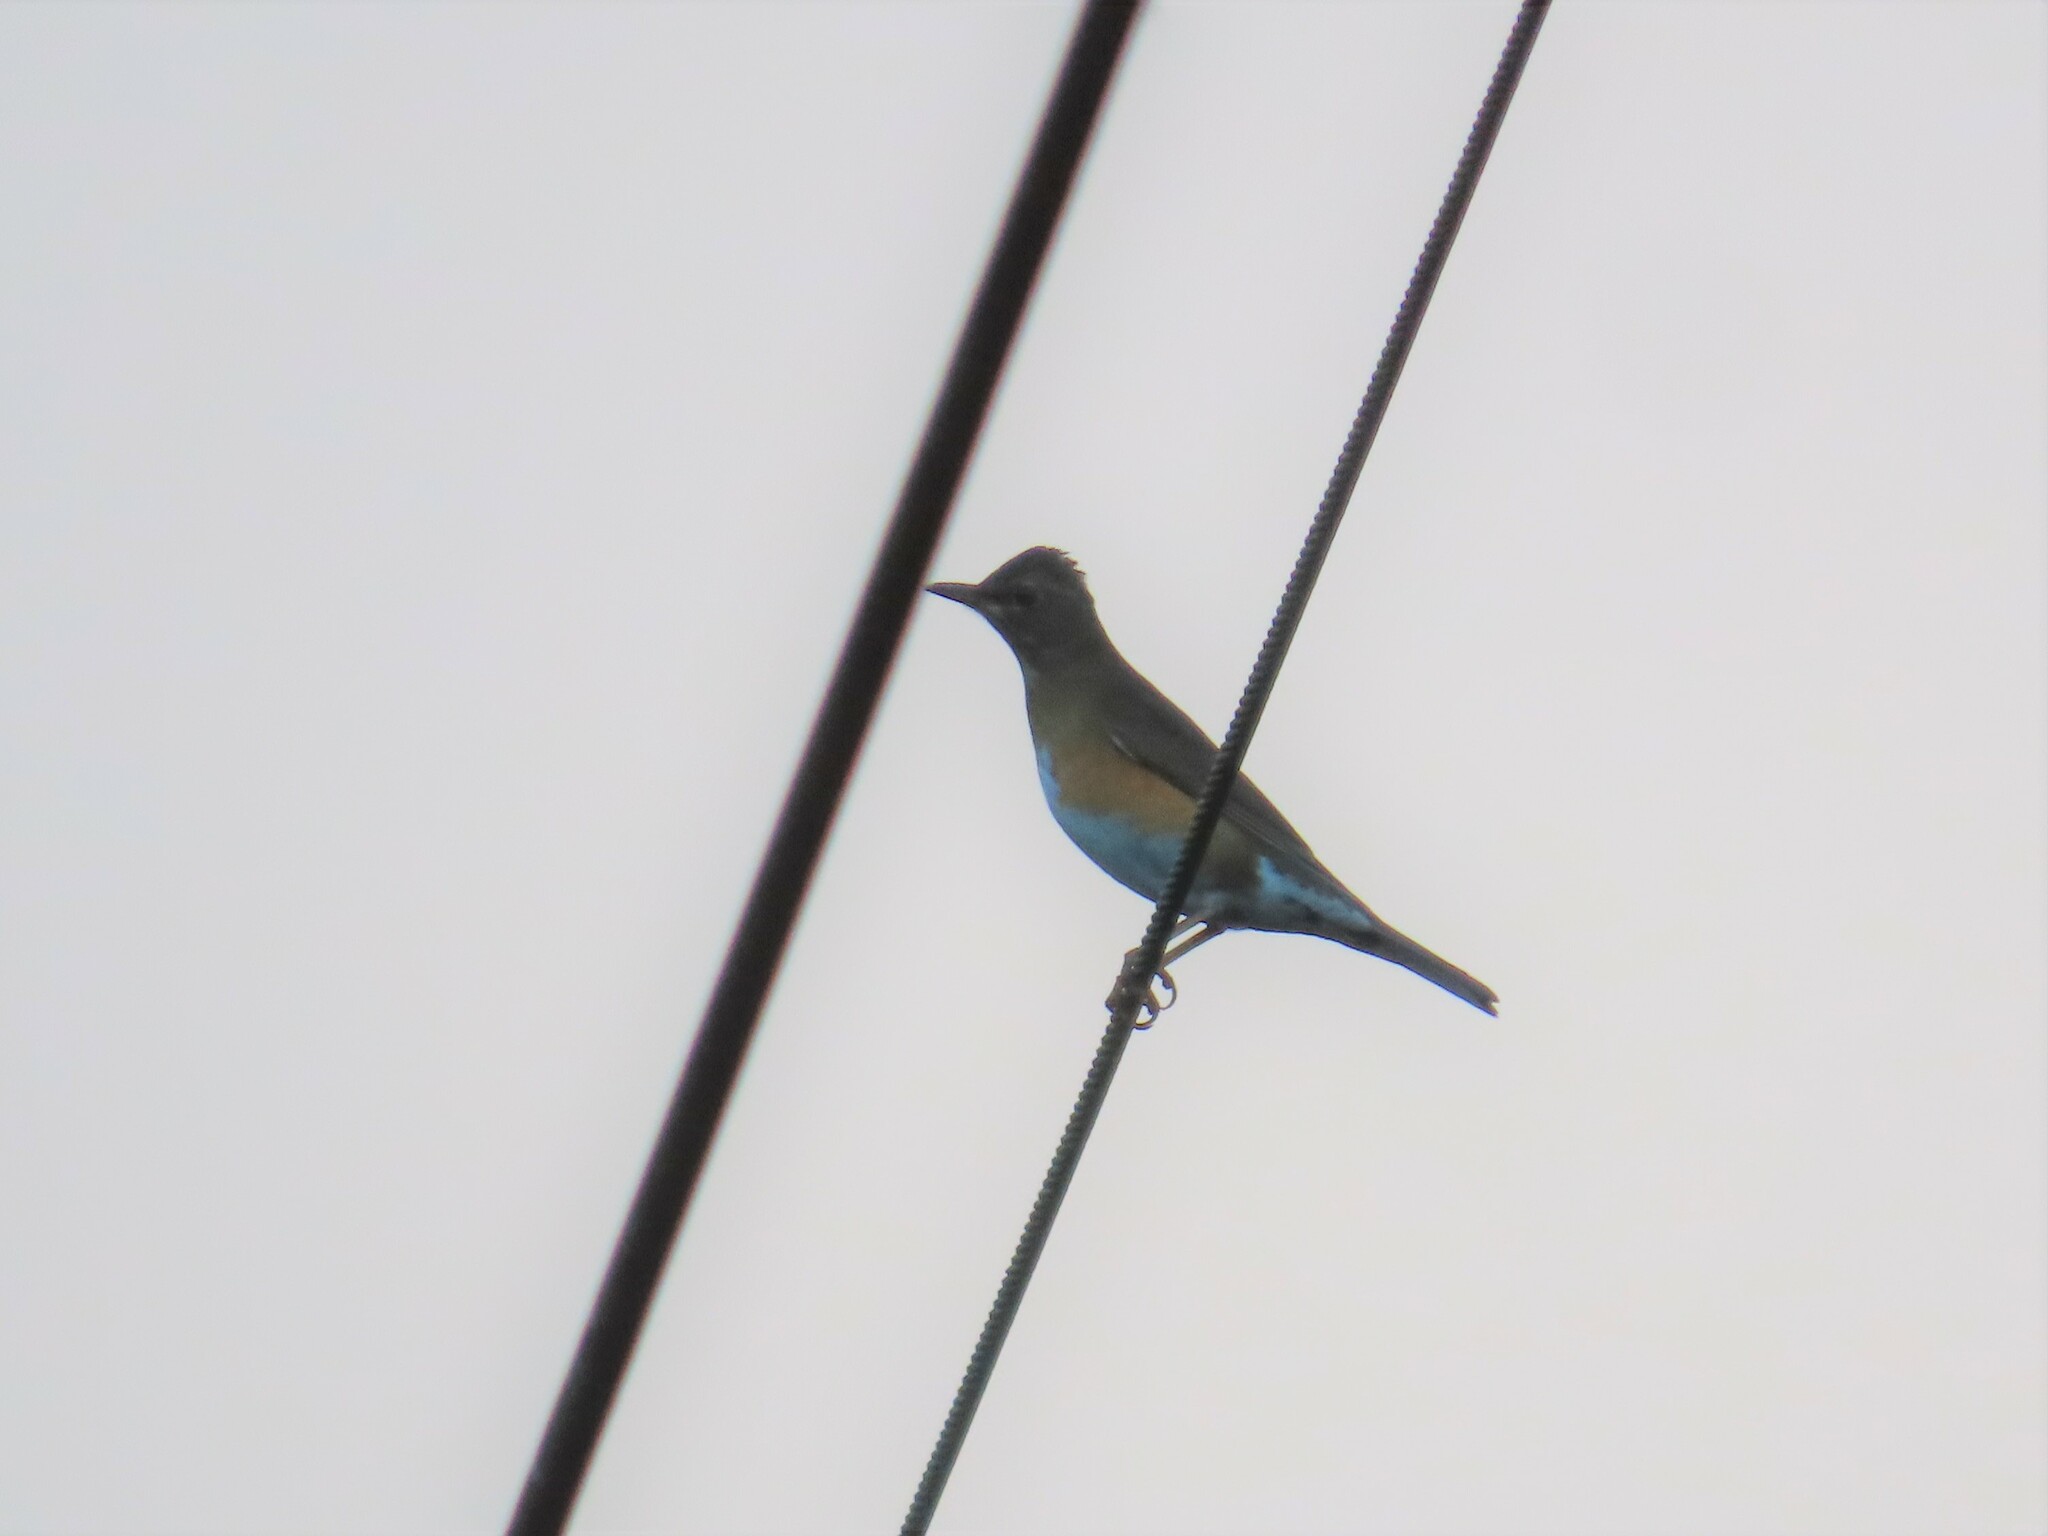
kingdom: Animalia
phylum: Chordata
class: Aves
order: Passeriformes
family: Turdidae
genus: Turdus
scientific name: Turdus chrysolaus
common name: Brown-headed thrush
